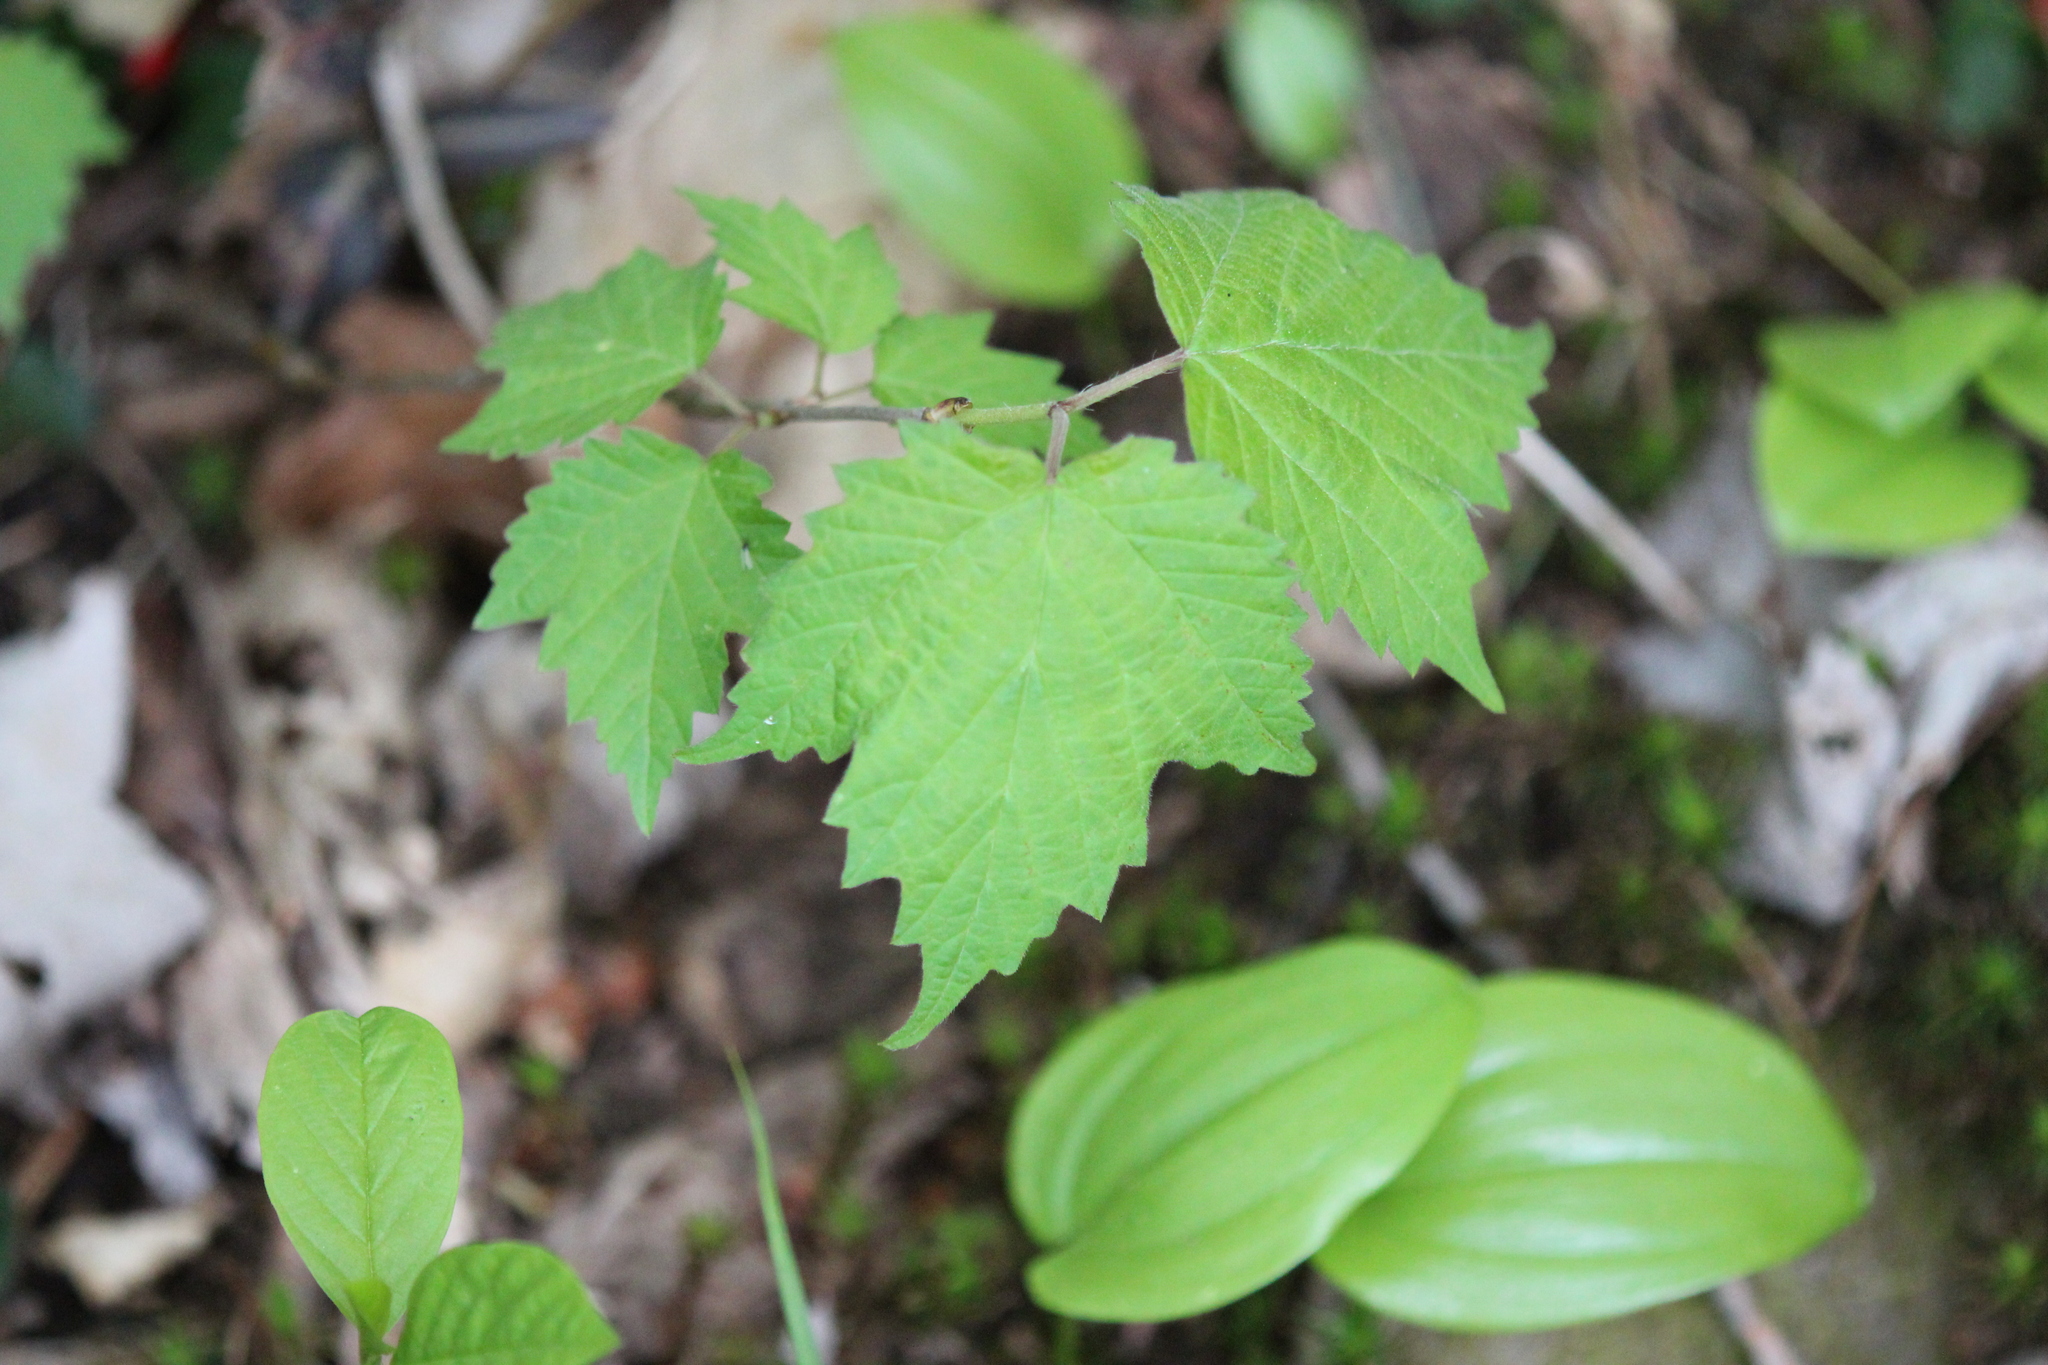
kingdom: Plantae
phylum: Tracheophyta
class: Magnoliopsida
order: Dipsacales
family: Viburnaceae
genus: Viburnum
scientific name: Viburnum acerifolium
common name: Dockmackie
